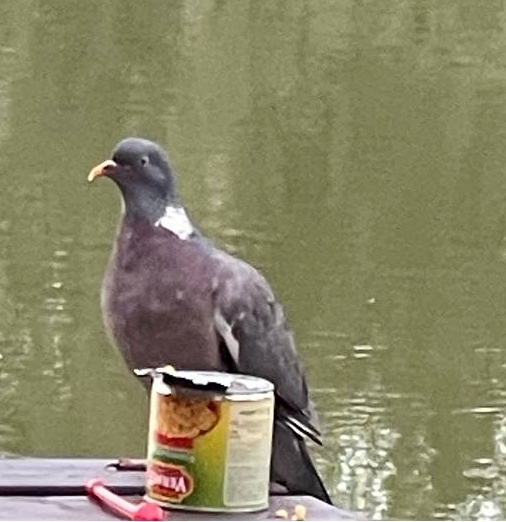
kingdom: Animalia
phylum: Chordata
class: Aves
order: Columbiformes
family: Columbidae
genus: Columba
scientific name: Columba palumbus
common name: Common wood pigeon
